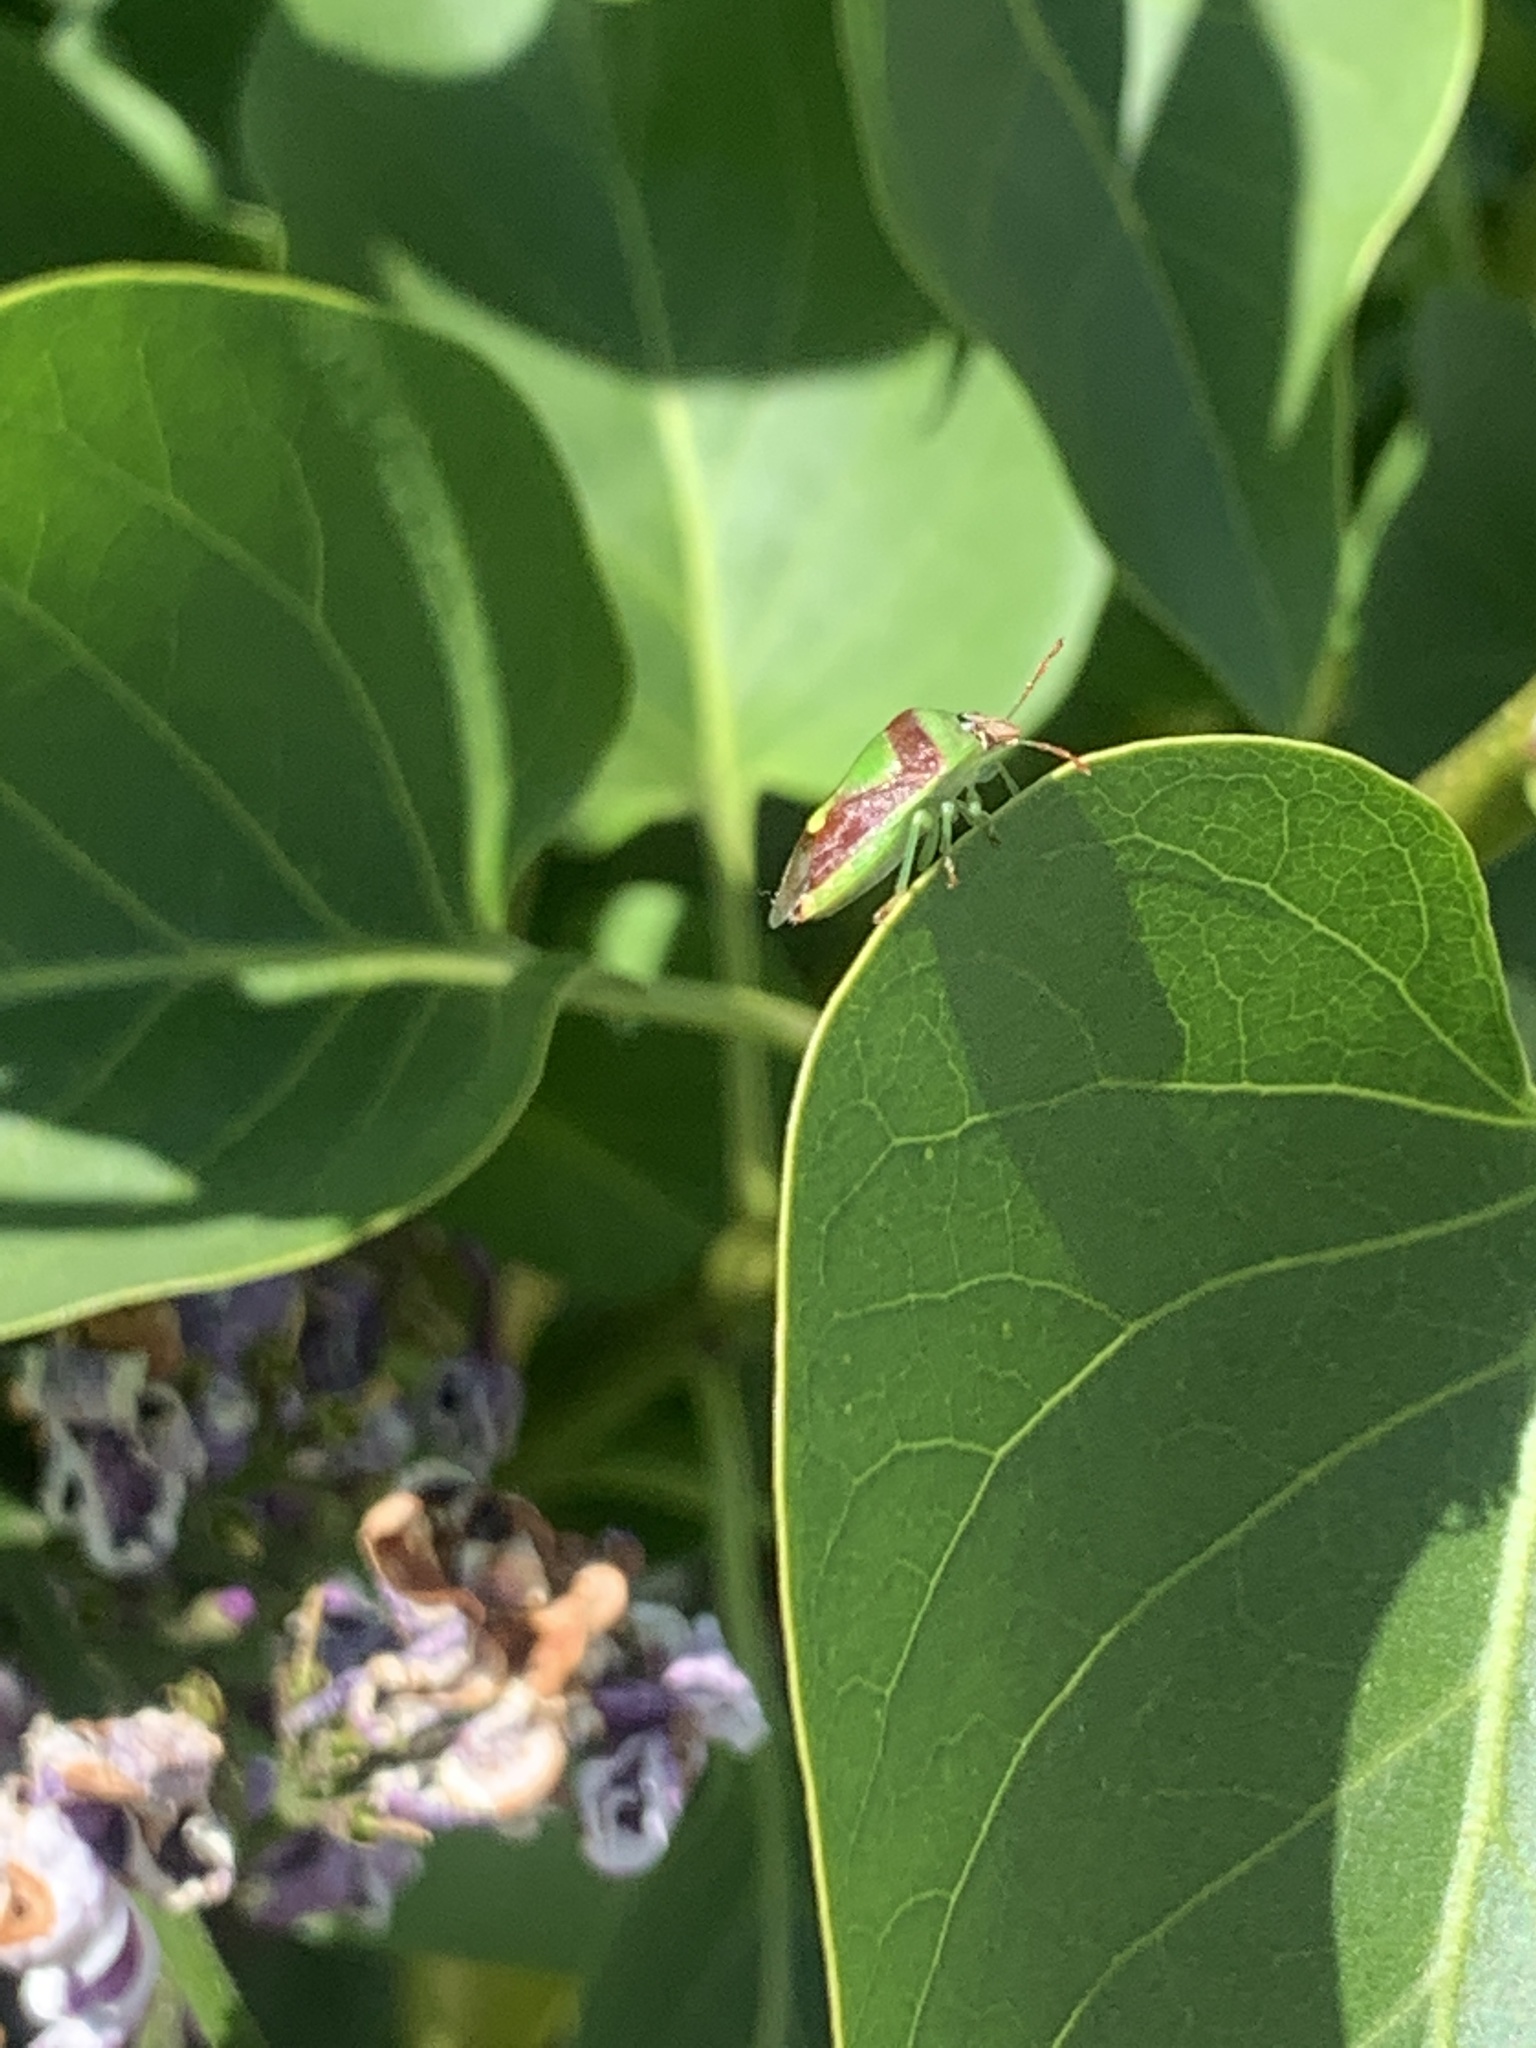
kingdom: Animalia
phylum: Arthropoda
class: Insecta
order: Hemiptera
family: Pentatomidae
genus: Banasa
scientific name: Banasa dimidiata
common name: Green burgundy stink bug
